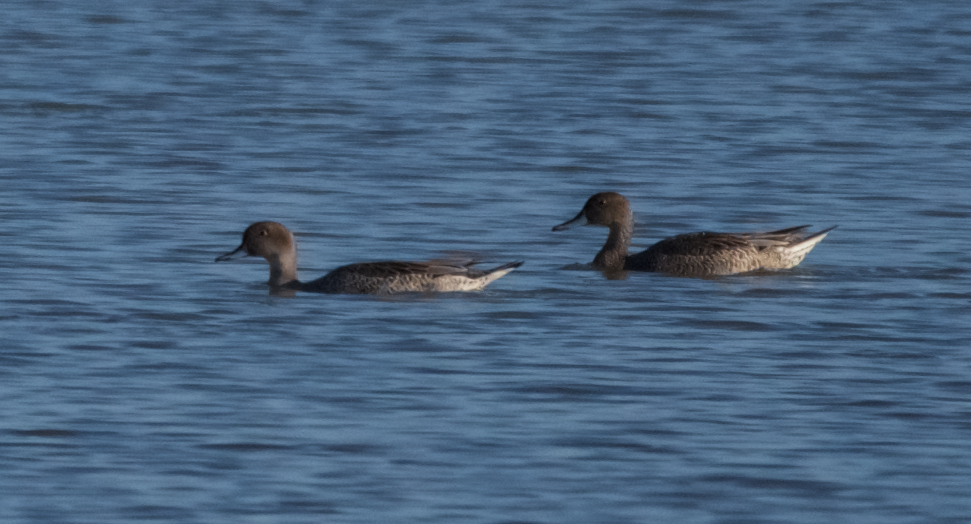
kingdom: Animalia
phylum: Chordata
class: Aves
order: Anseriformes
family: Anatidae
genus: Anas
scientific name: Anas acuta
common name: Northern pintail
